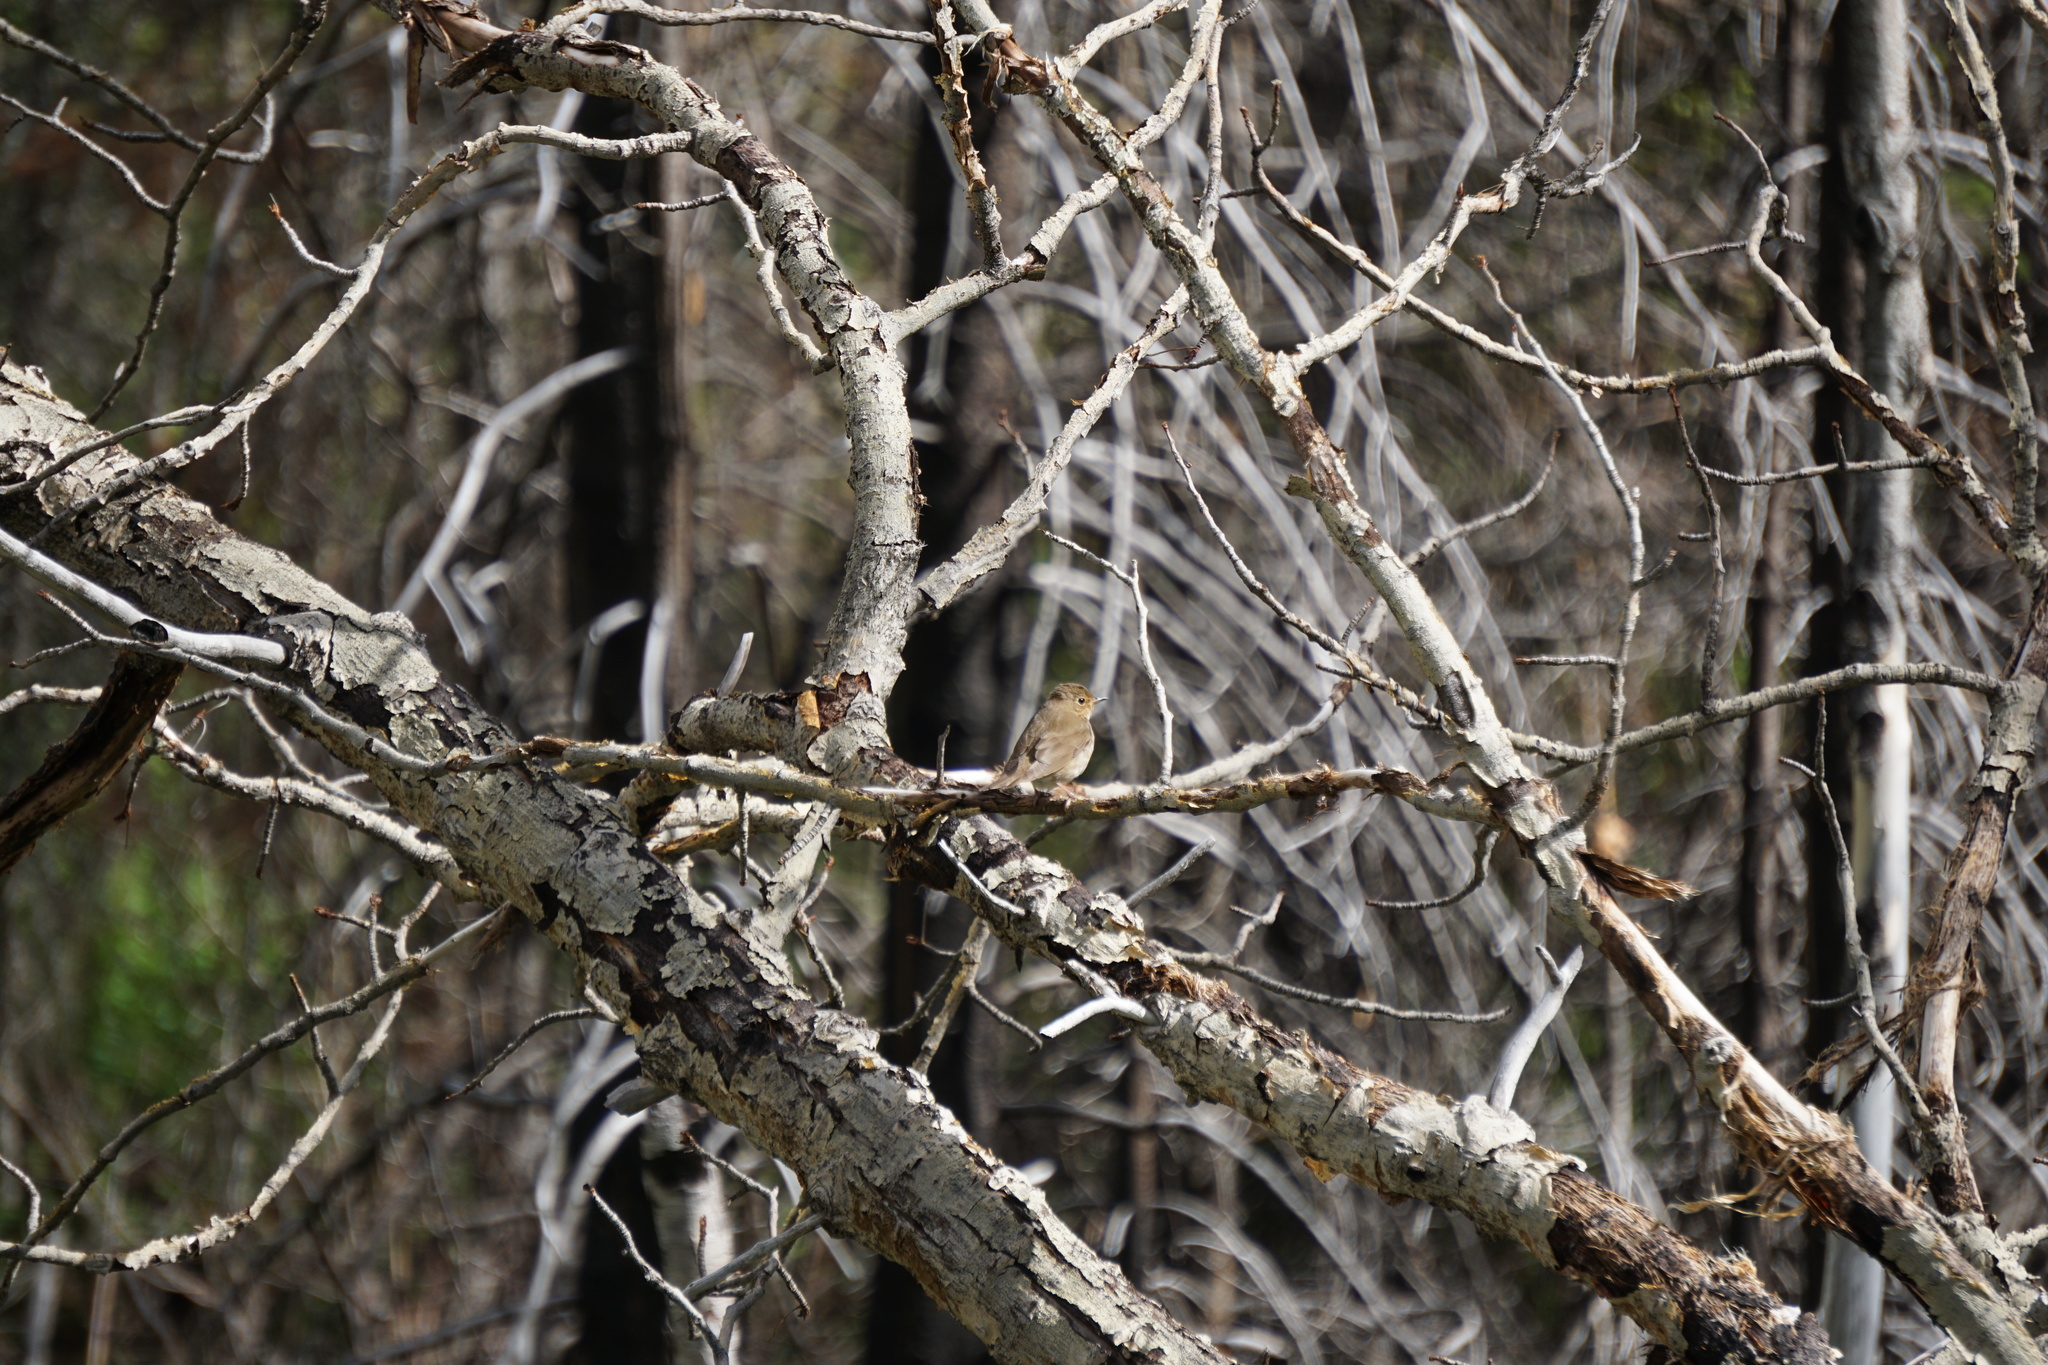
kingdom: Animalia
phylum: Chordata
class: Aves
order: Passeriformes
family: Turdidae
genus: Catharus
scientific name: Catharus ustulatus
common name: Swainson's thrush
